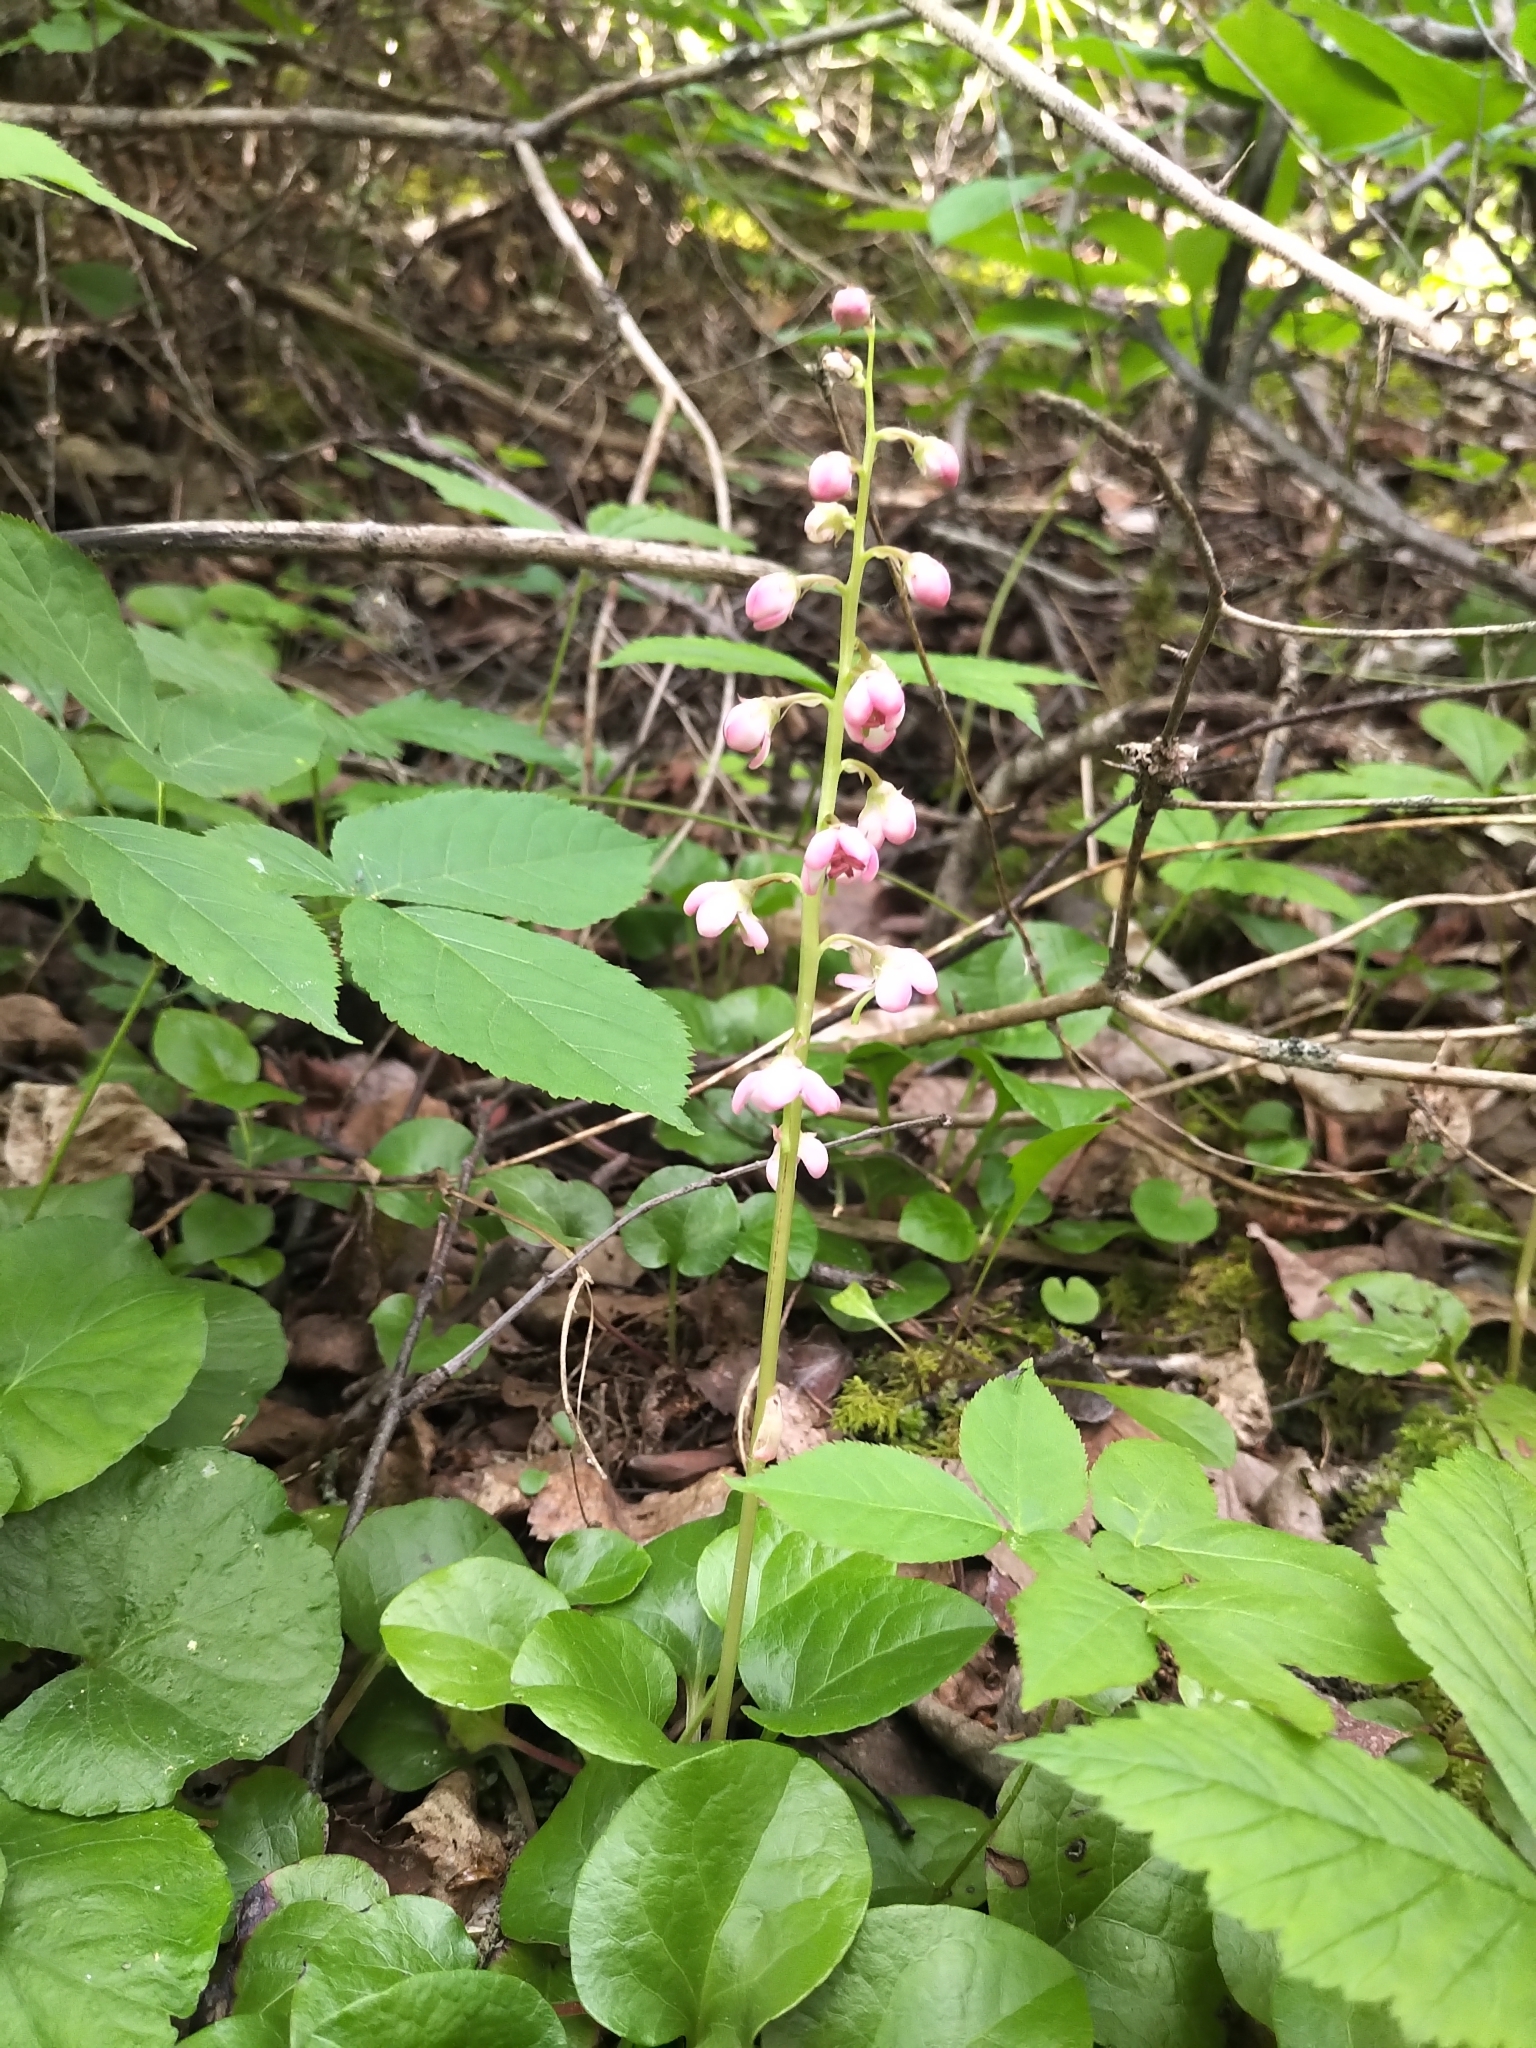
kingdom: Plantae
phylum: Tracheophyta
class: Magnoliopsida
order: Ericales
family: Ericaceae
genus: Pyrola
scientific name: Pyrola asarifolia
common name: Bog wintergreen
